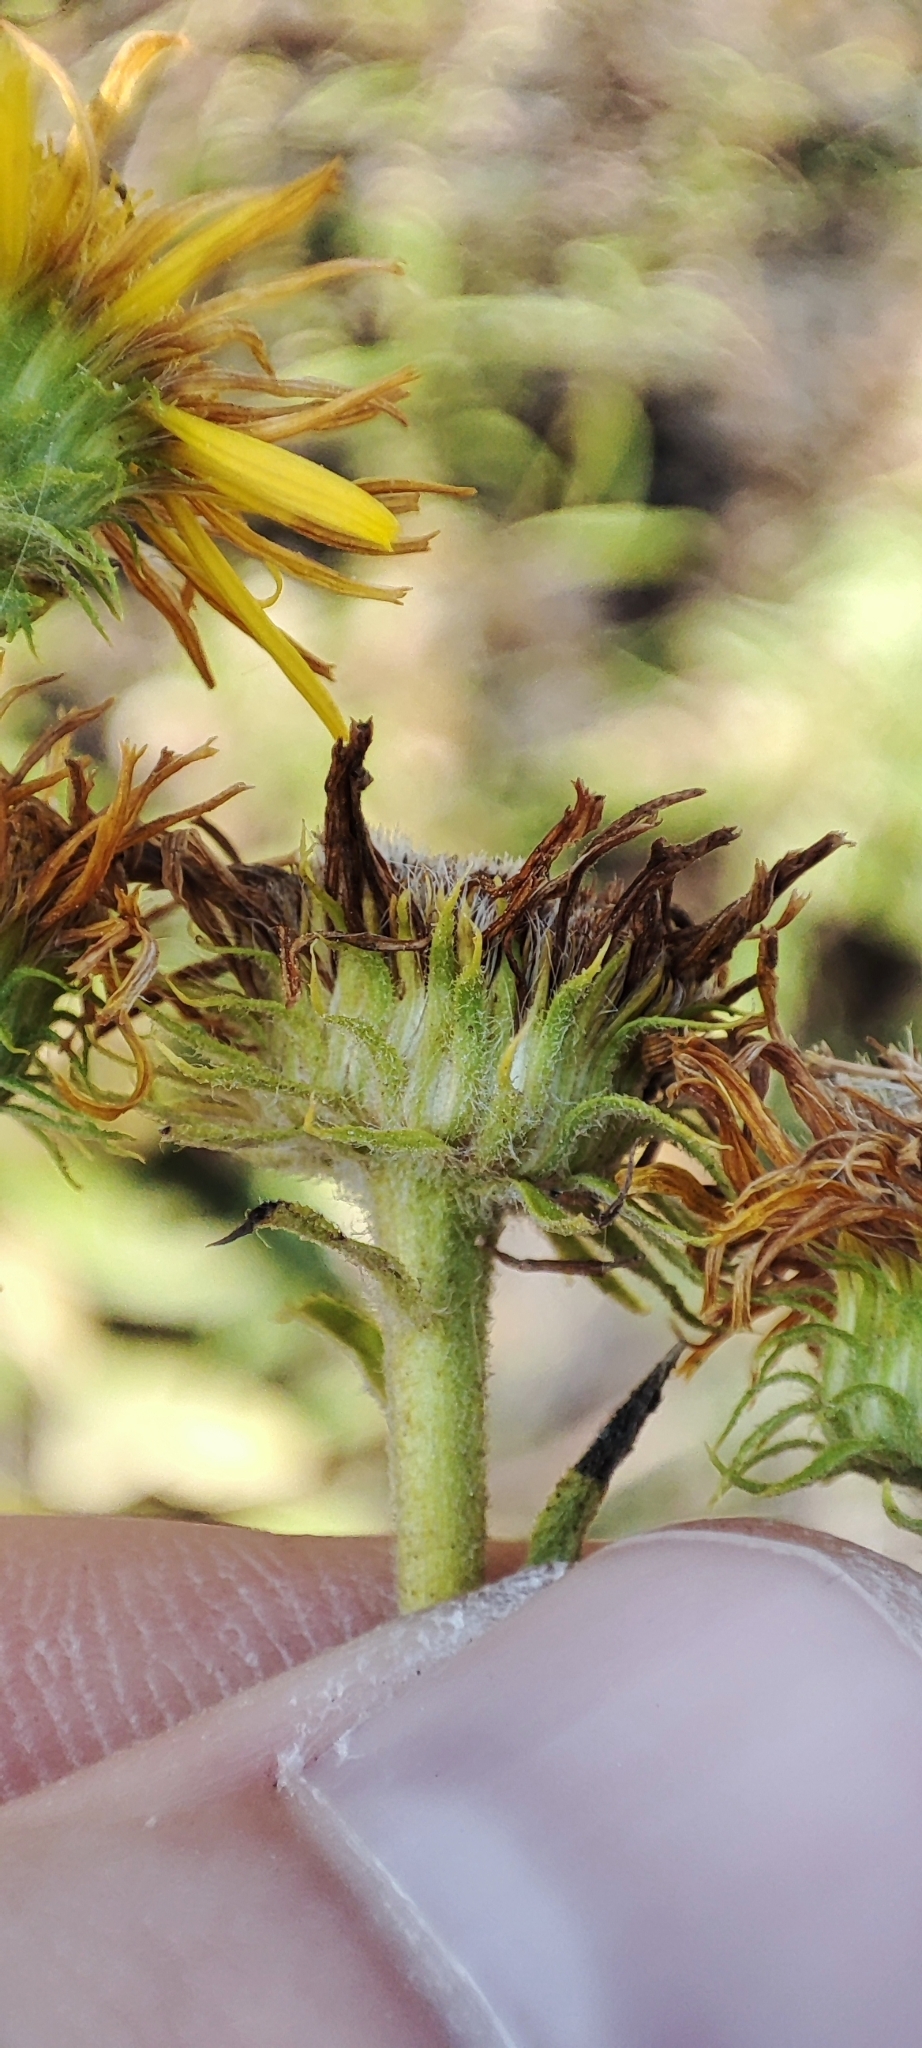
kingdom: Plantae
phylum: Tracheophyta
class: Magnoliopsida
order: Asterales
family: Asteraceae
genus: Pentanema
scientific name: Pentanema britannicum
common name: British elecampane
